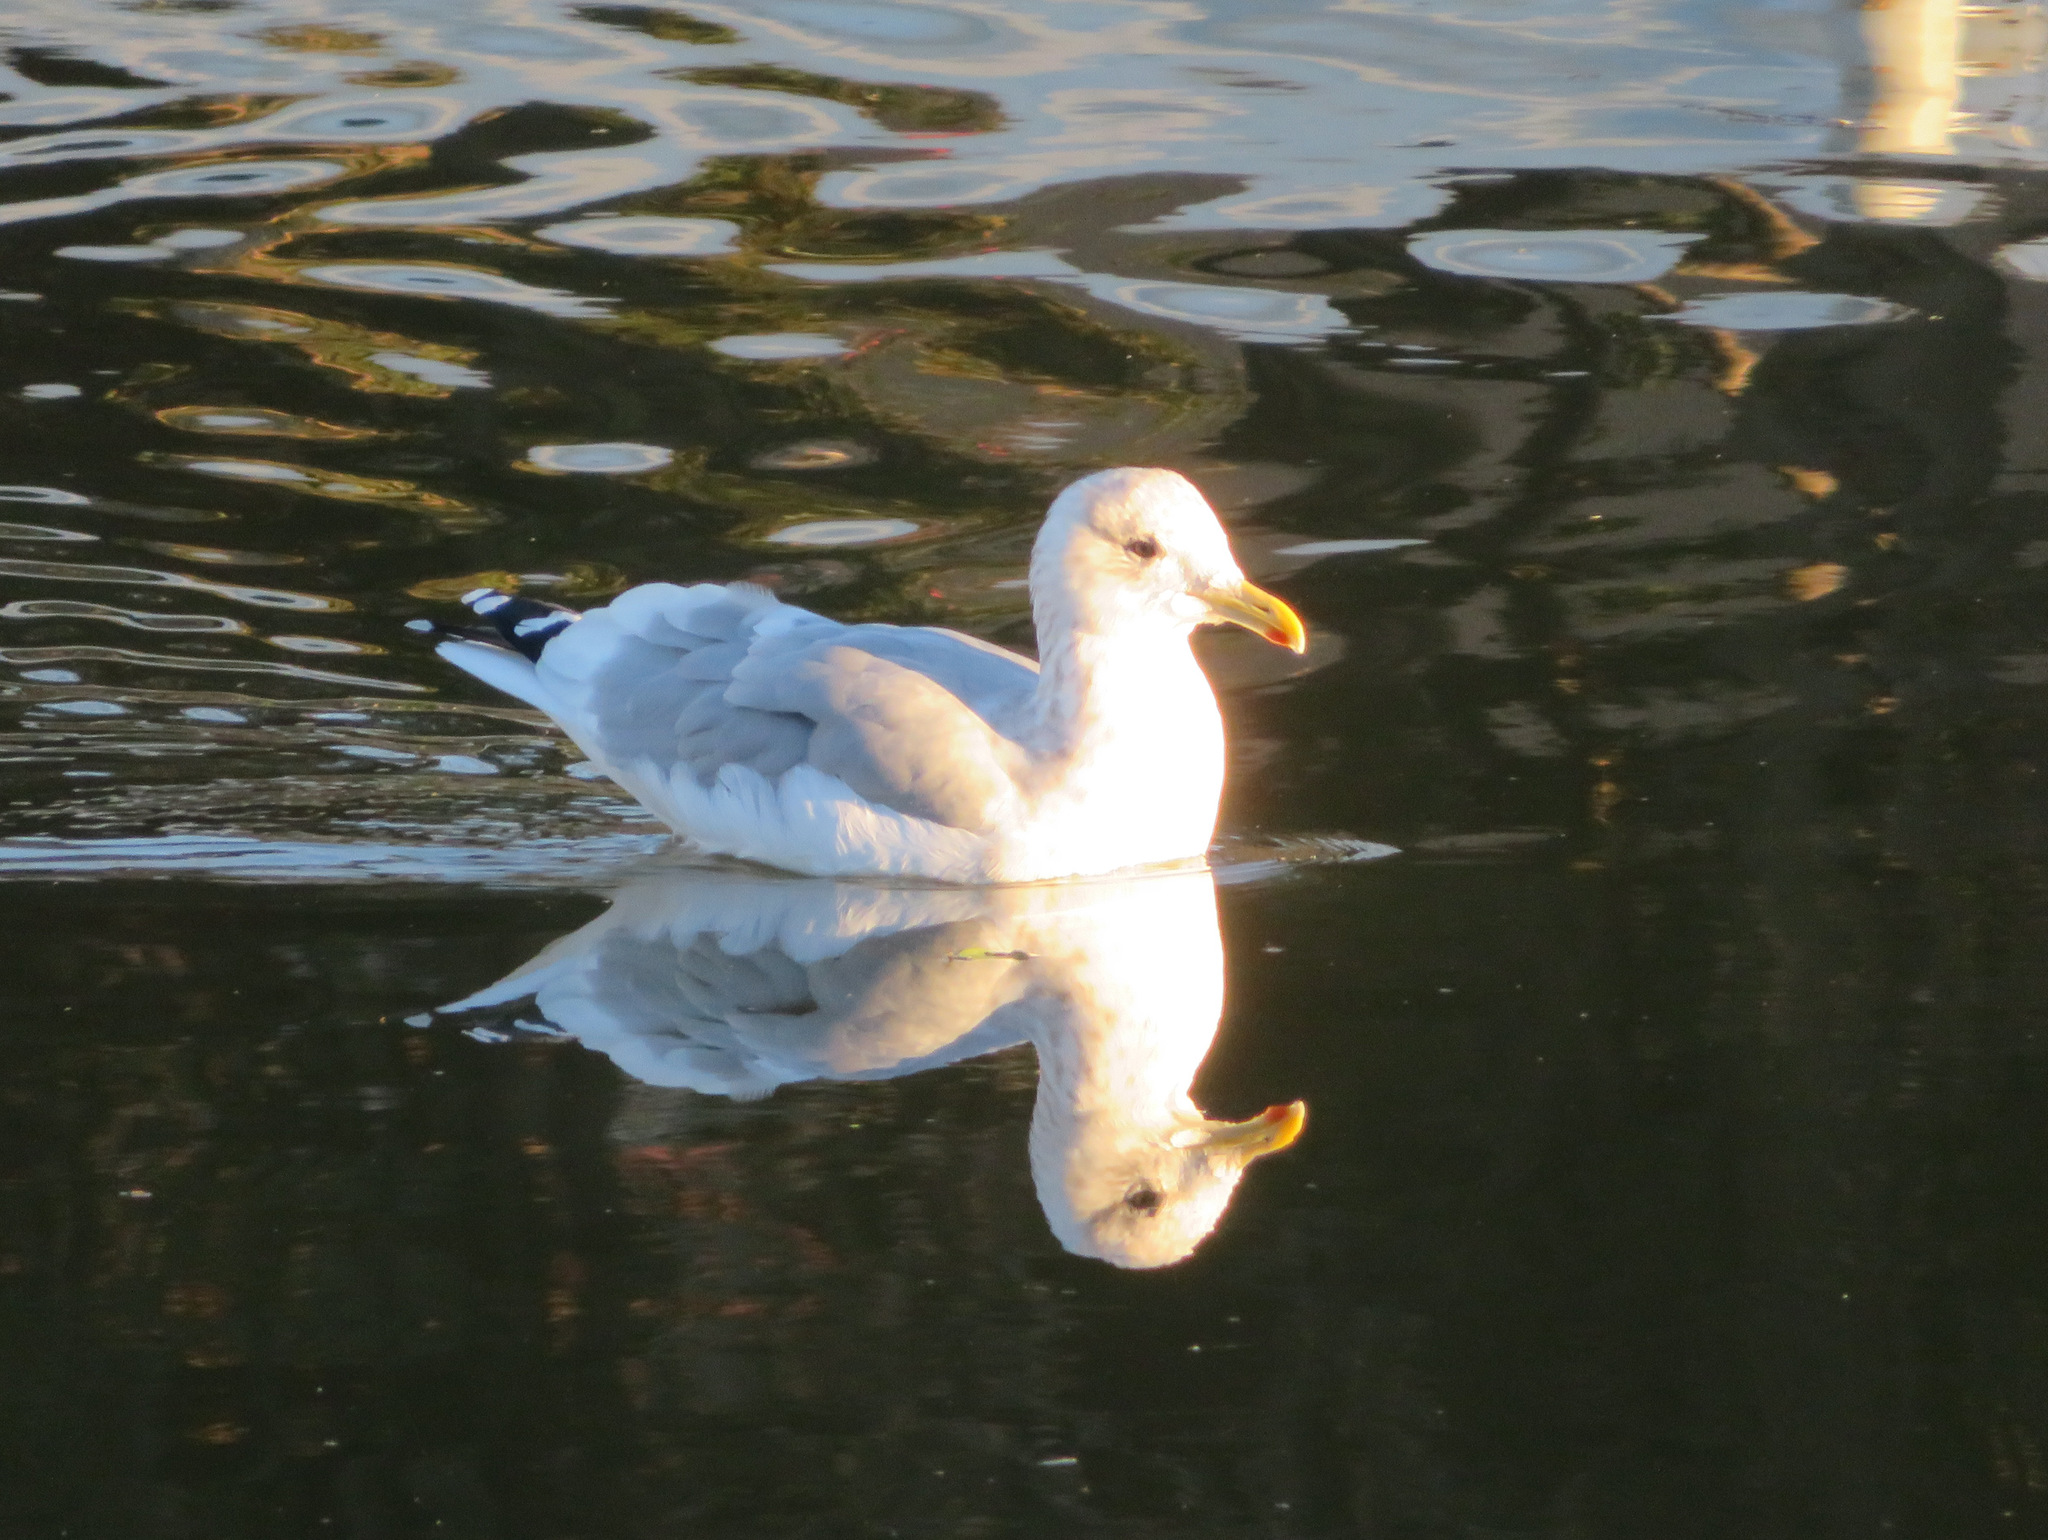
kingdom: Animalia
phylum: Chordata
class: Aves
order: Charadriiformes
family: Laridae
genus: Larus
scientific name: Larus vegae
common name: Vega gull
